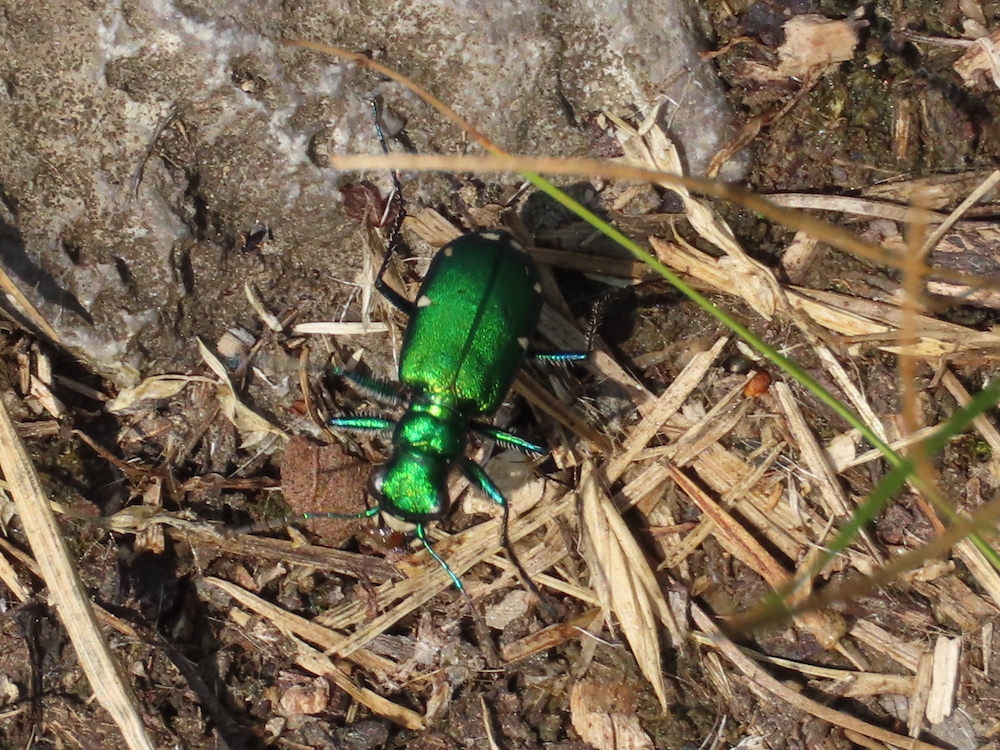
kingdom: Animalia
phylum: Arthropoda
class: Insecta
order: Coleoptera
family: Carabidae
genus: Cicindela
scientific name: Cicindela sexguttata
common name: Six-spotted tiger beetle
